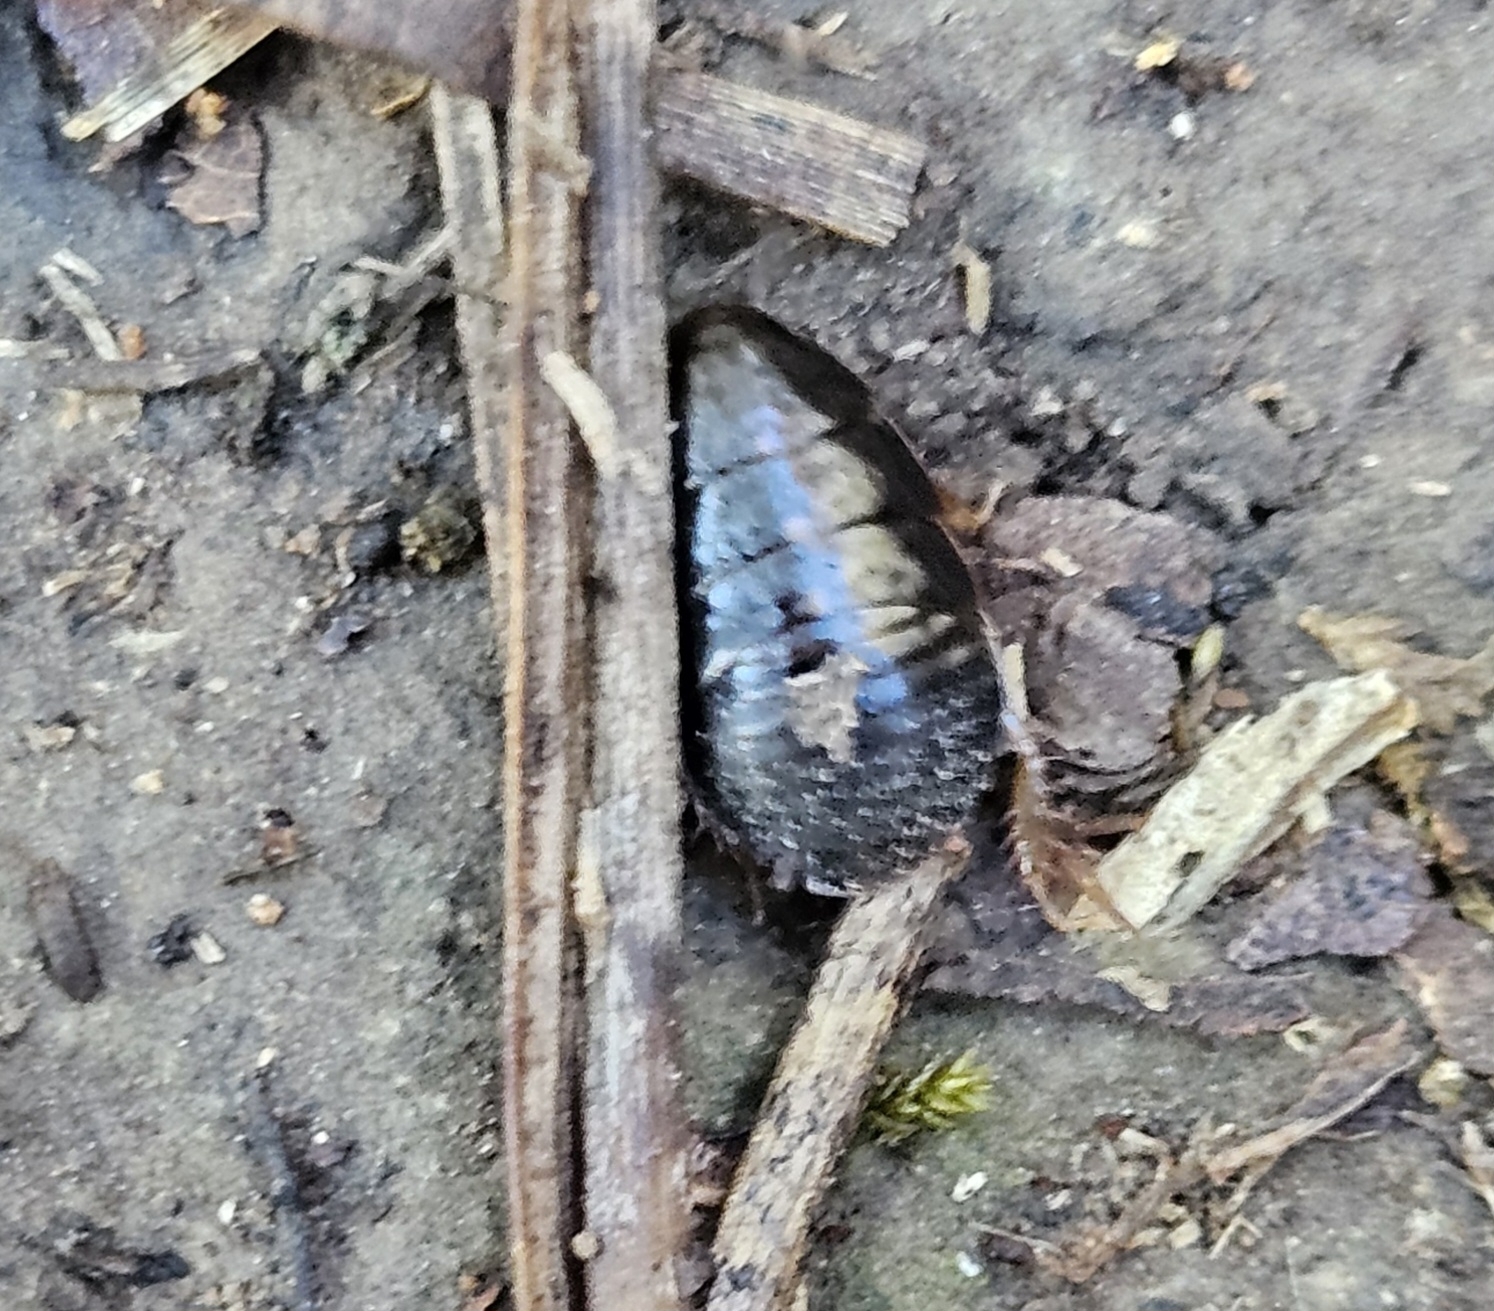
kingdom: Animalia
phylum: Arthropoda
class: Insecta
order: Blattodea
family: Blaberidae
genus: Pycnoscelus
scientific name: Pycnoscelus surinamensis
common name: Surinam cockroach
